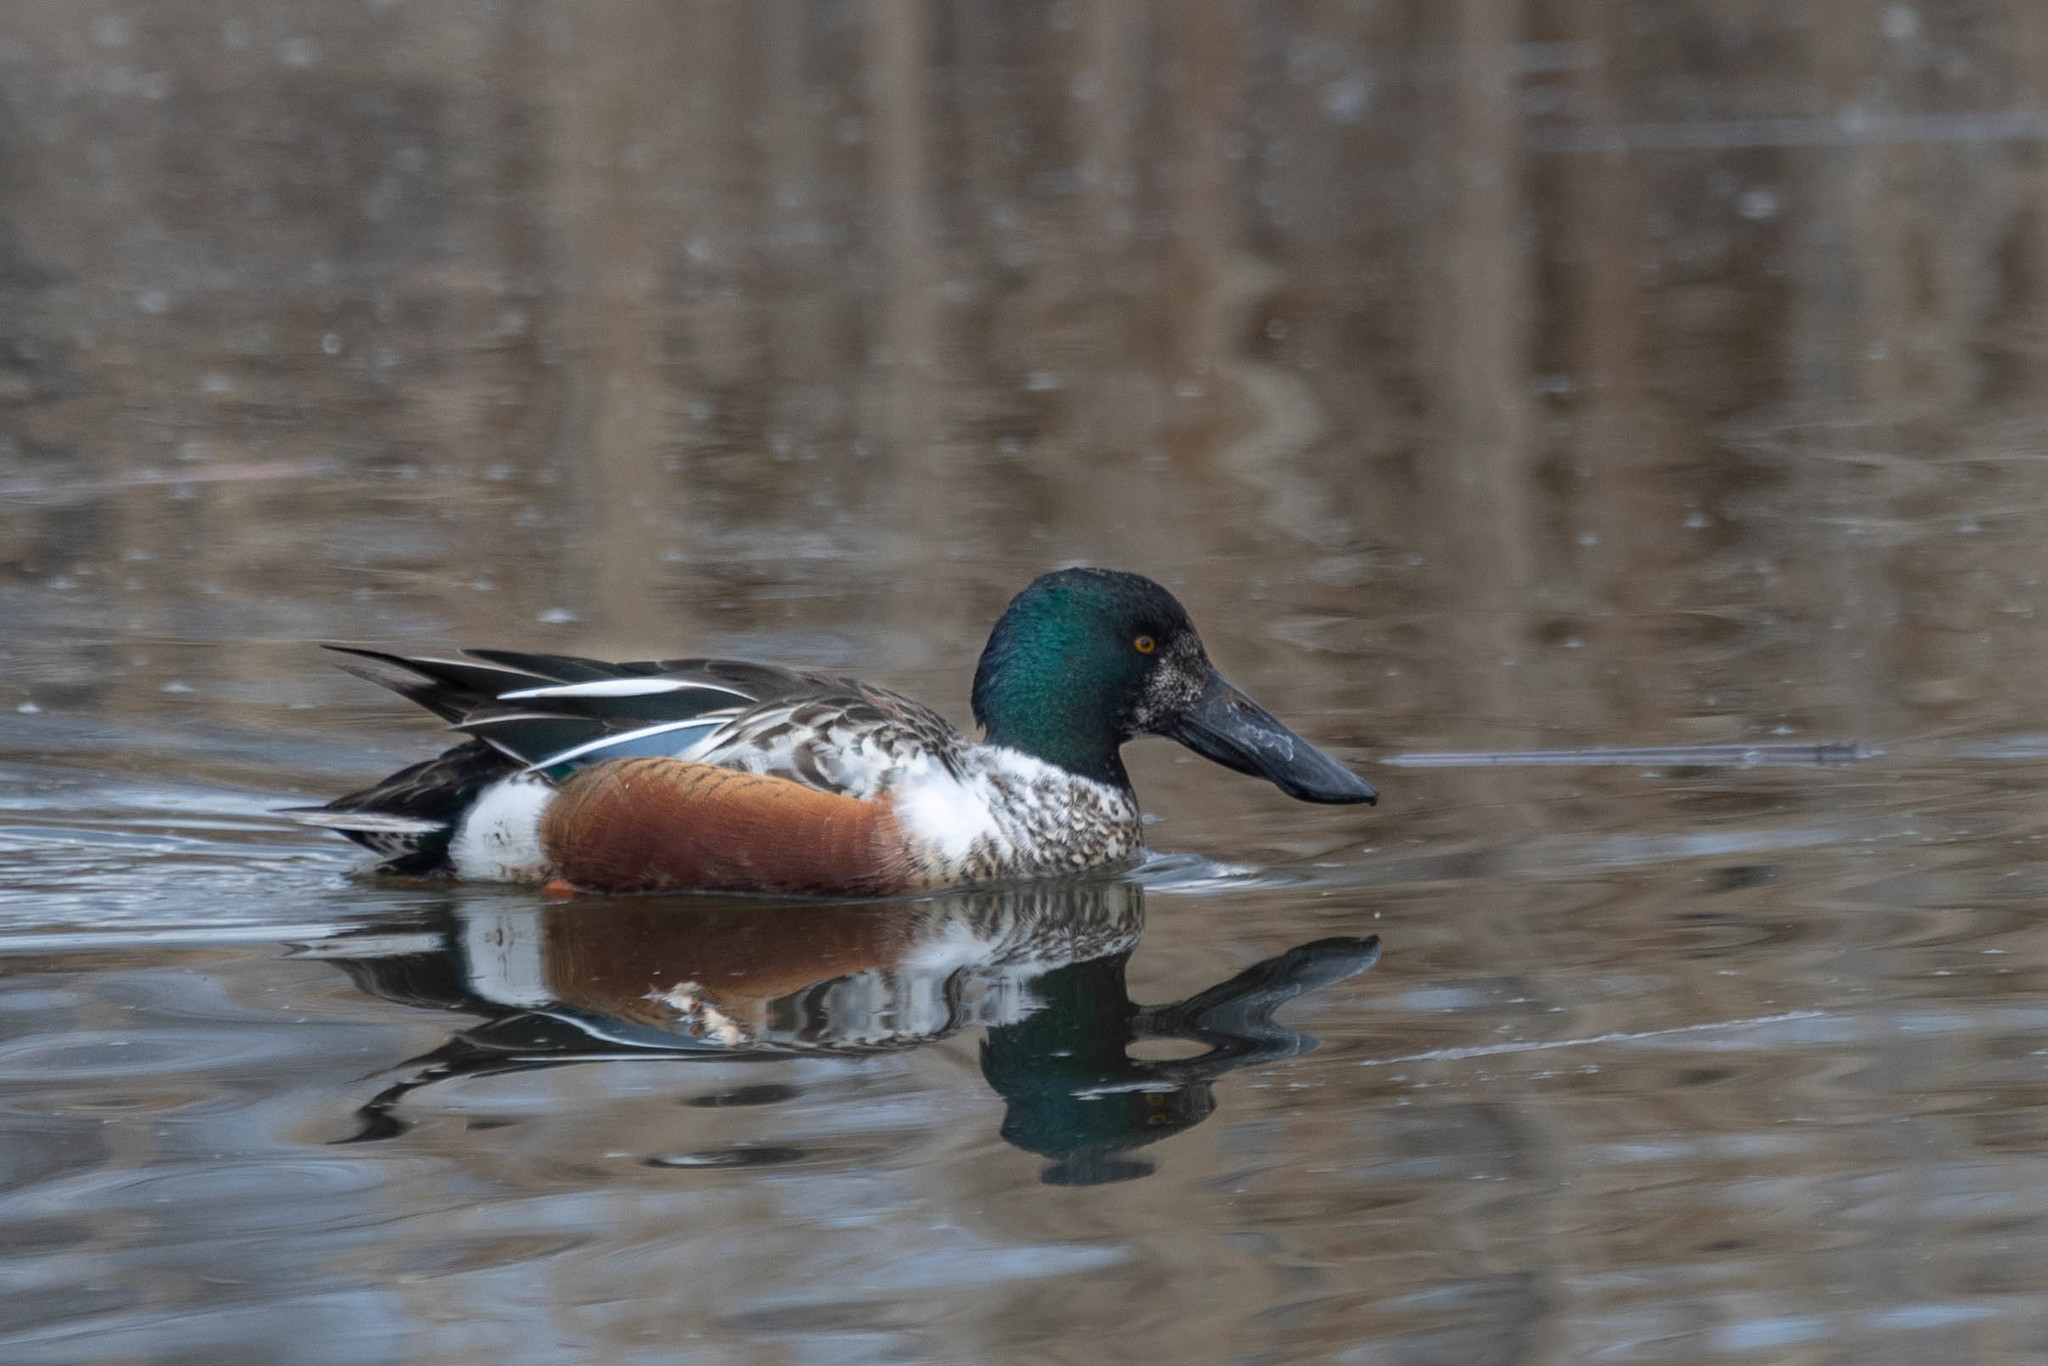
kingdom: Animalia
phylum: Chordata
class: Aves
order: Anseriformes
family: Anatidae
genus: Spatula
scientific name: Spatula clypeata
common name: Northern shoveler
